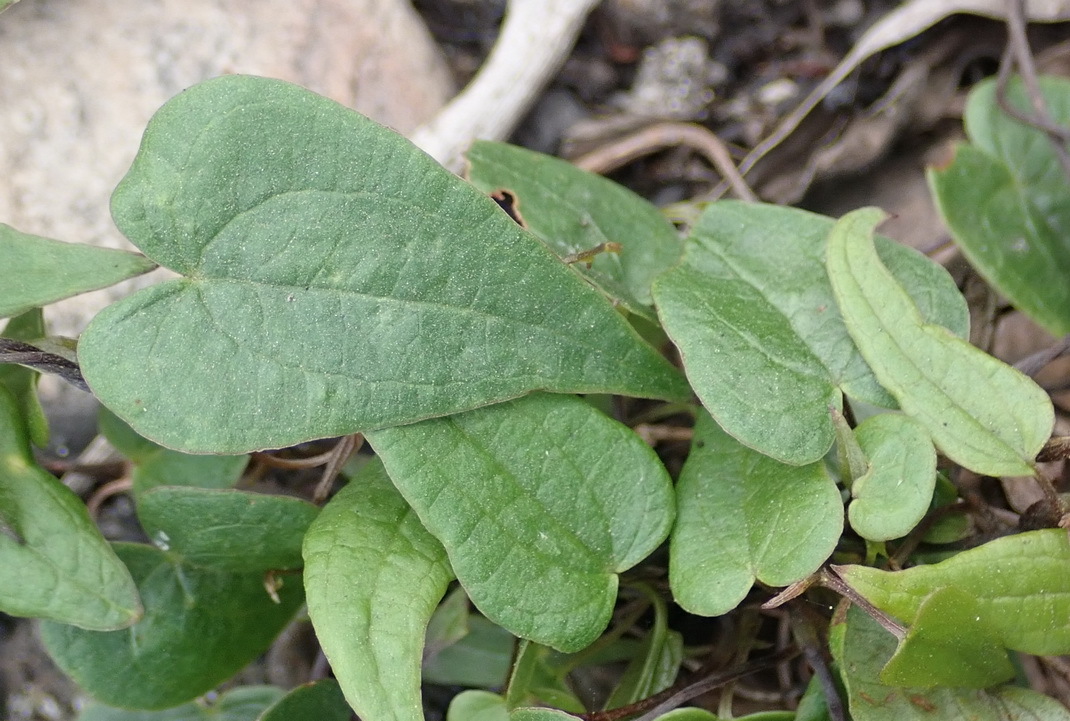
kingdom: Plantae
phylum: Tracheophyta
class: Liliopsida
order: Dioscoreales
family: Dioscoreaceae
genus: Dioscorea
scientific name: Dioscorea burchellii
